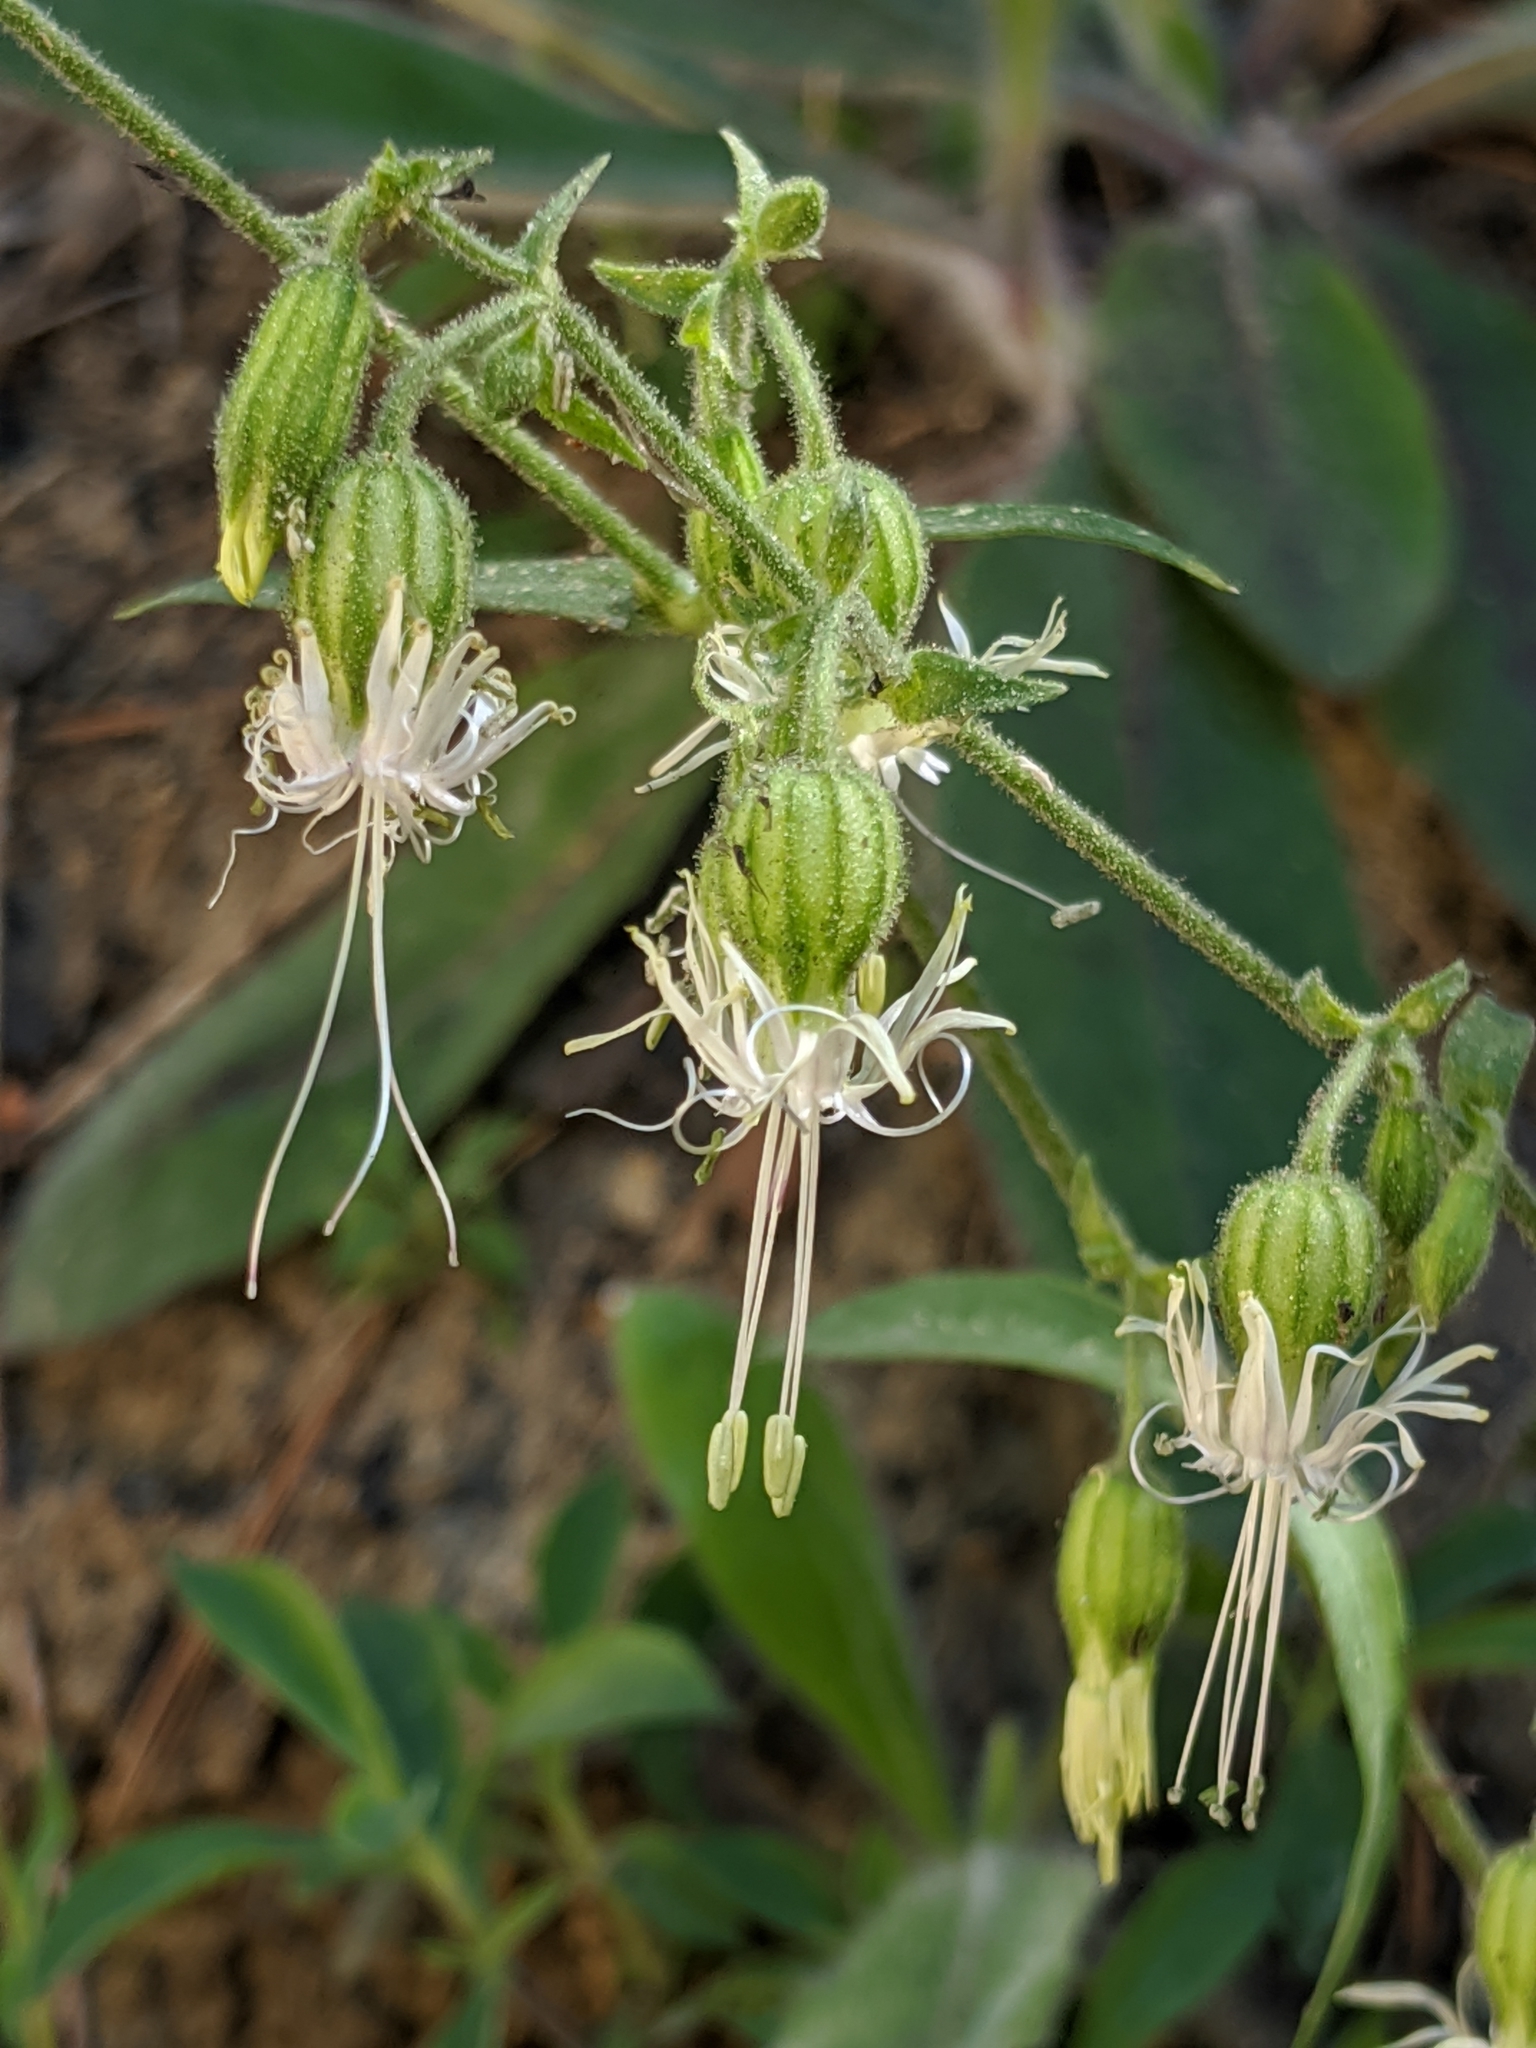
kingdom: Plantae
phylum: Tracheophyta
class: Magnoliopsida
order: Caryophyllales
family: Caryophyllaceae
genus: Silene
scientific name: Silene lemmonii
